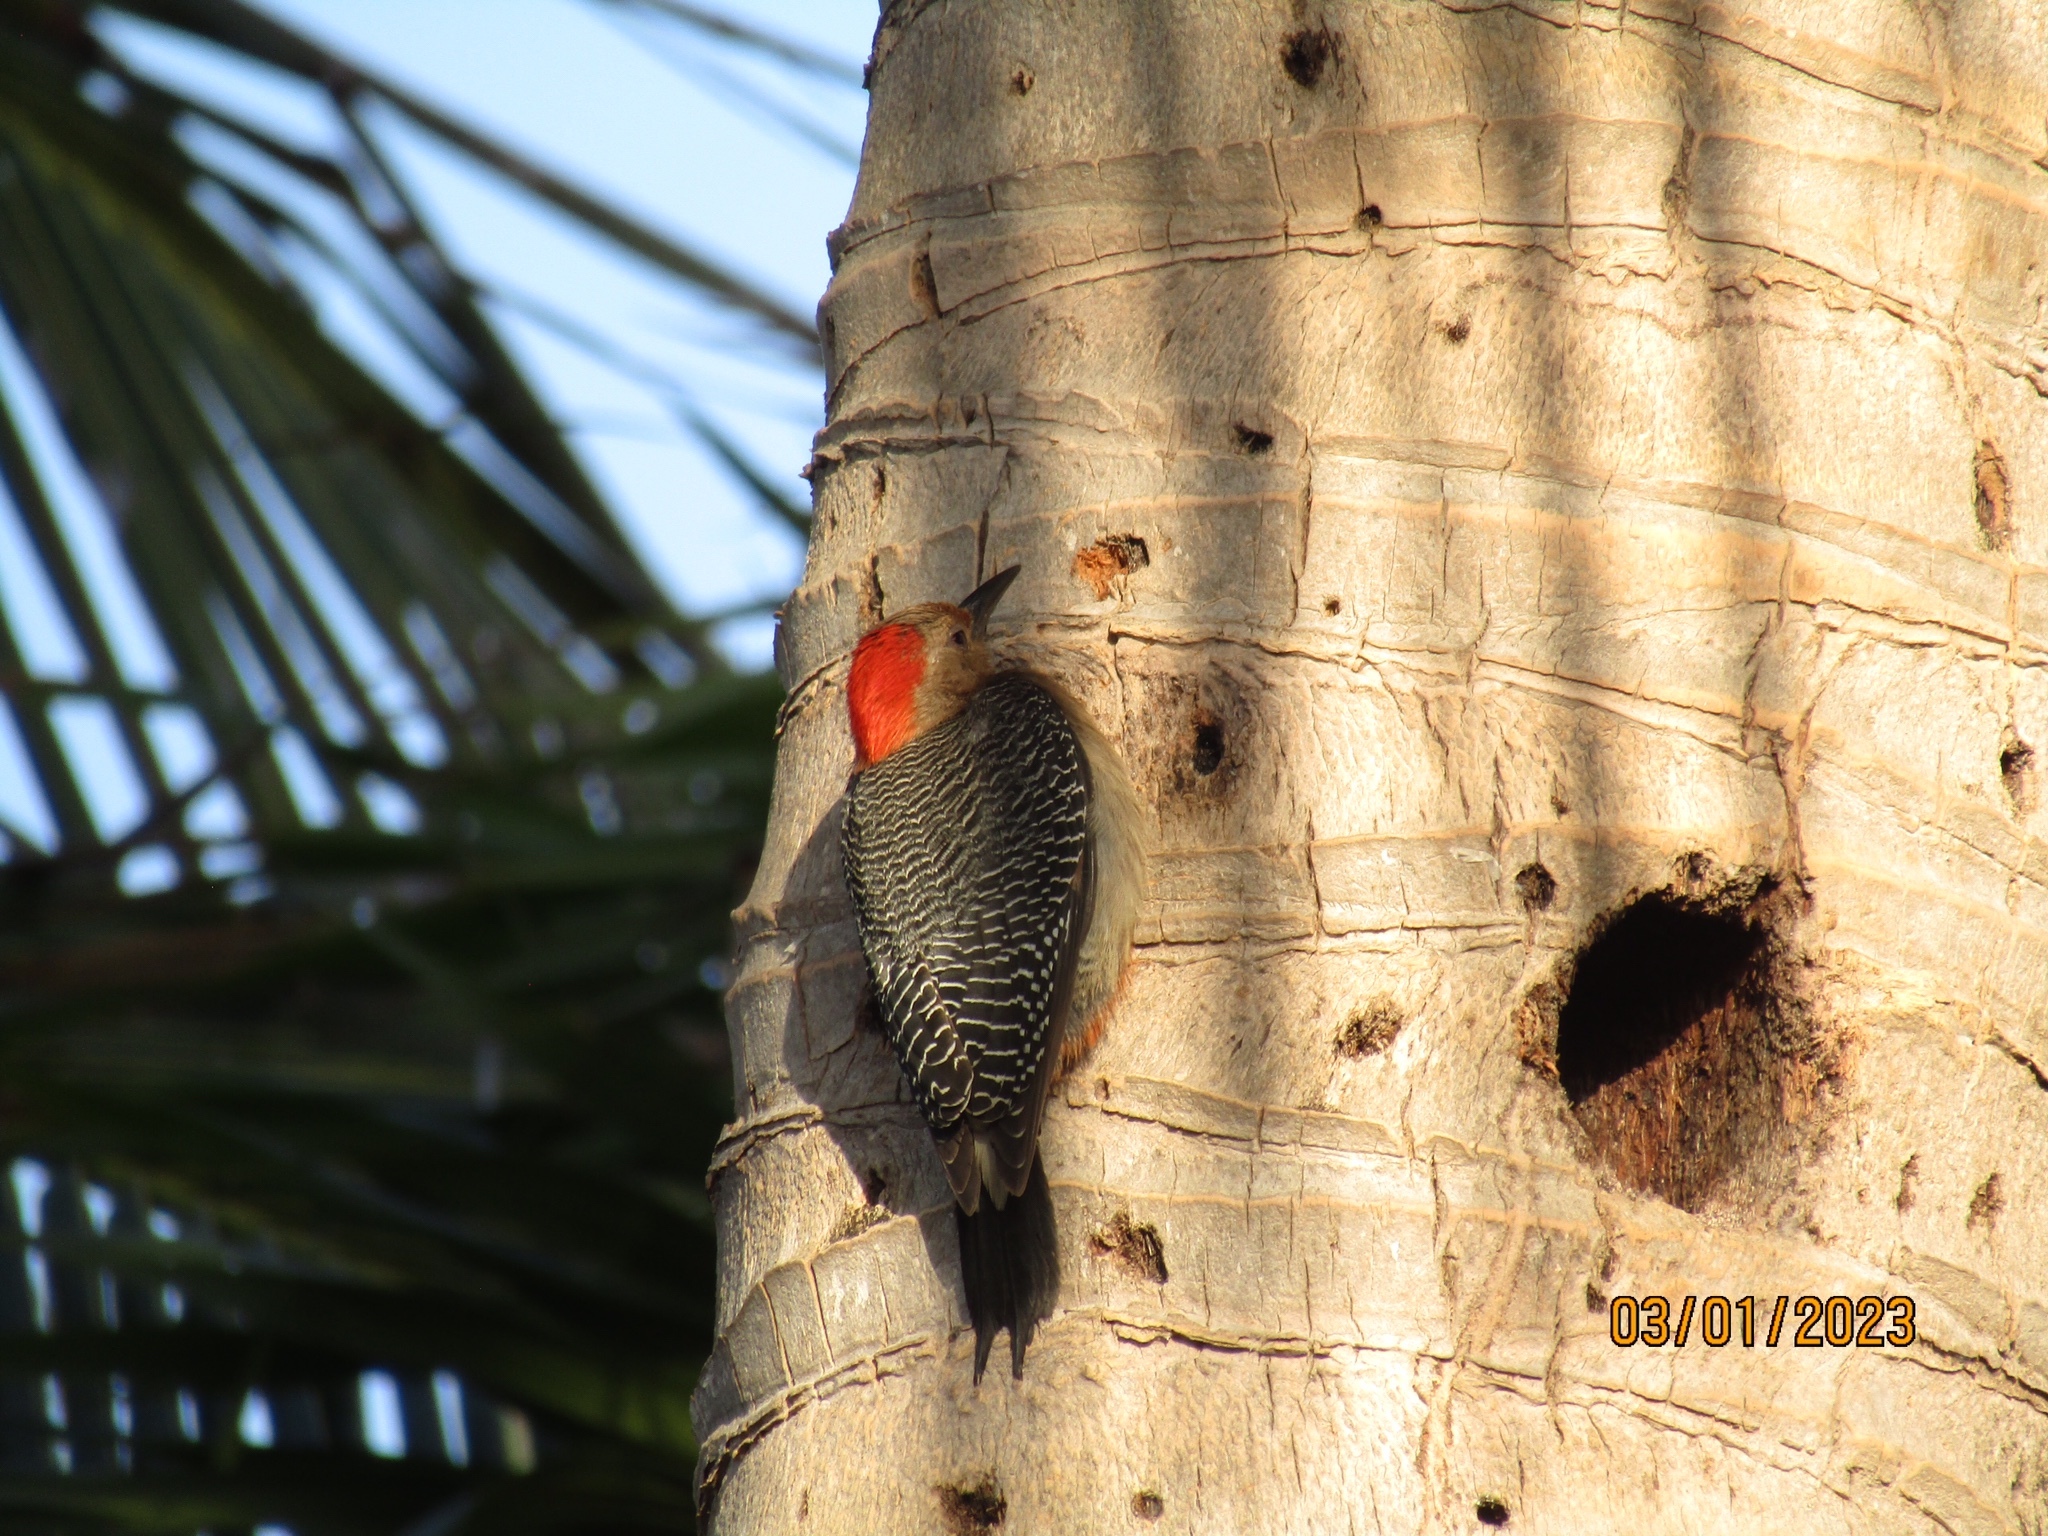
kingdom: Animalia
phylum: Chordata
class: Aves
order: Piciformes
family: Picidae
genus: Melanerpes
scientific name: Melanerpes aurifrons
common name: Golden-fronted woodpecker
